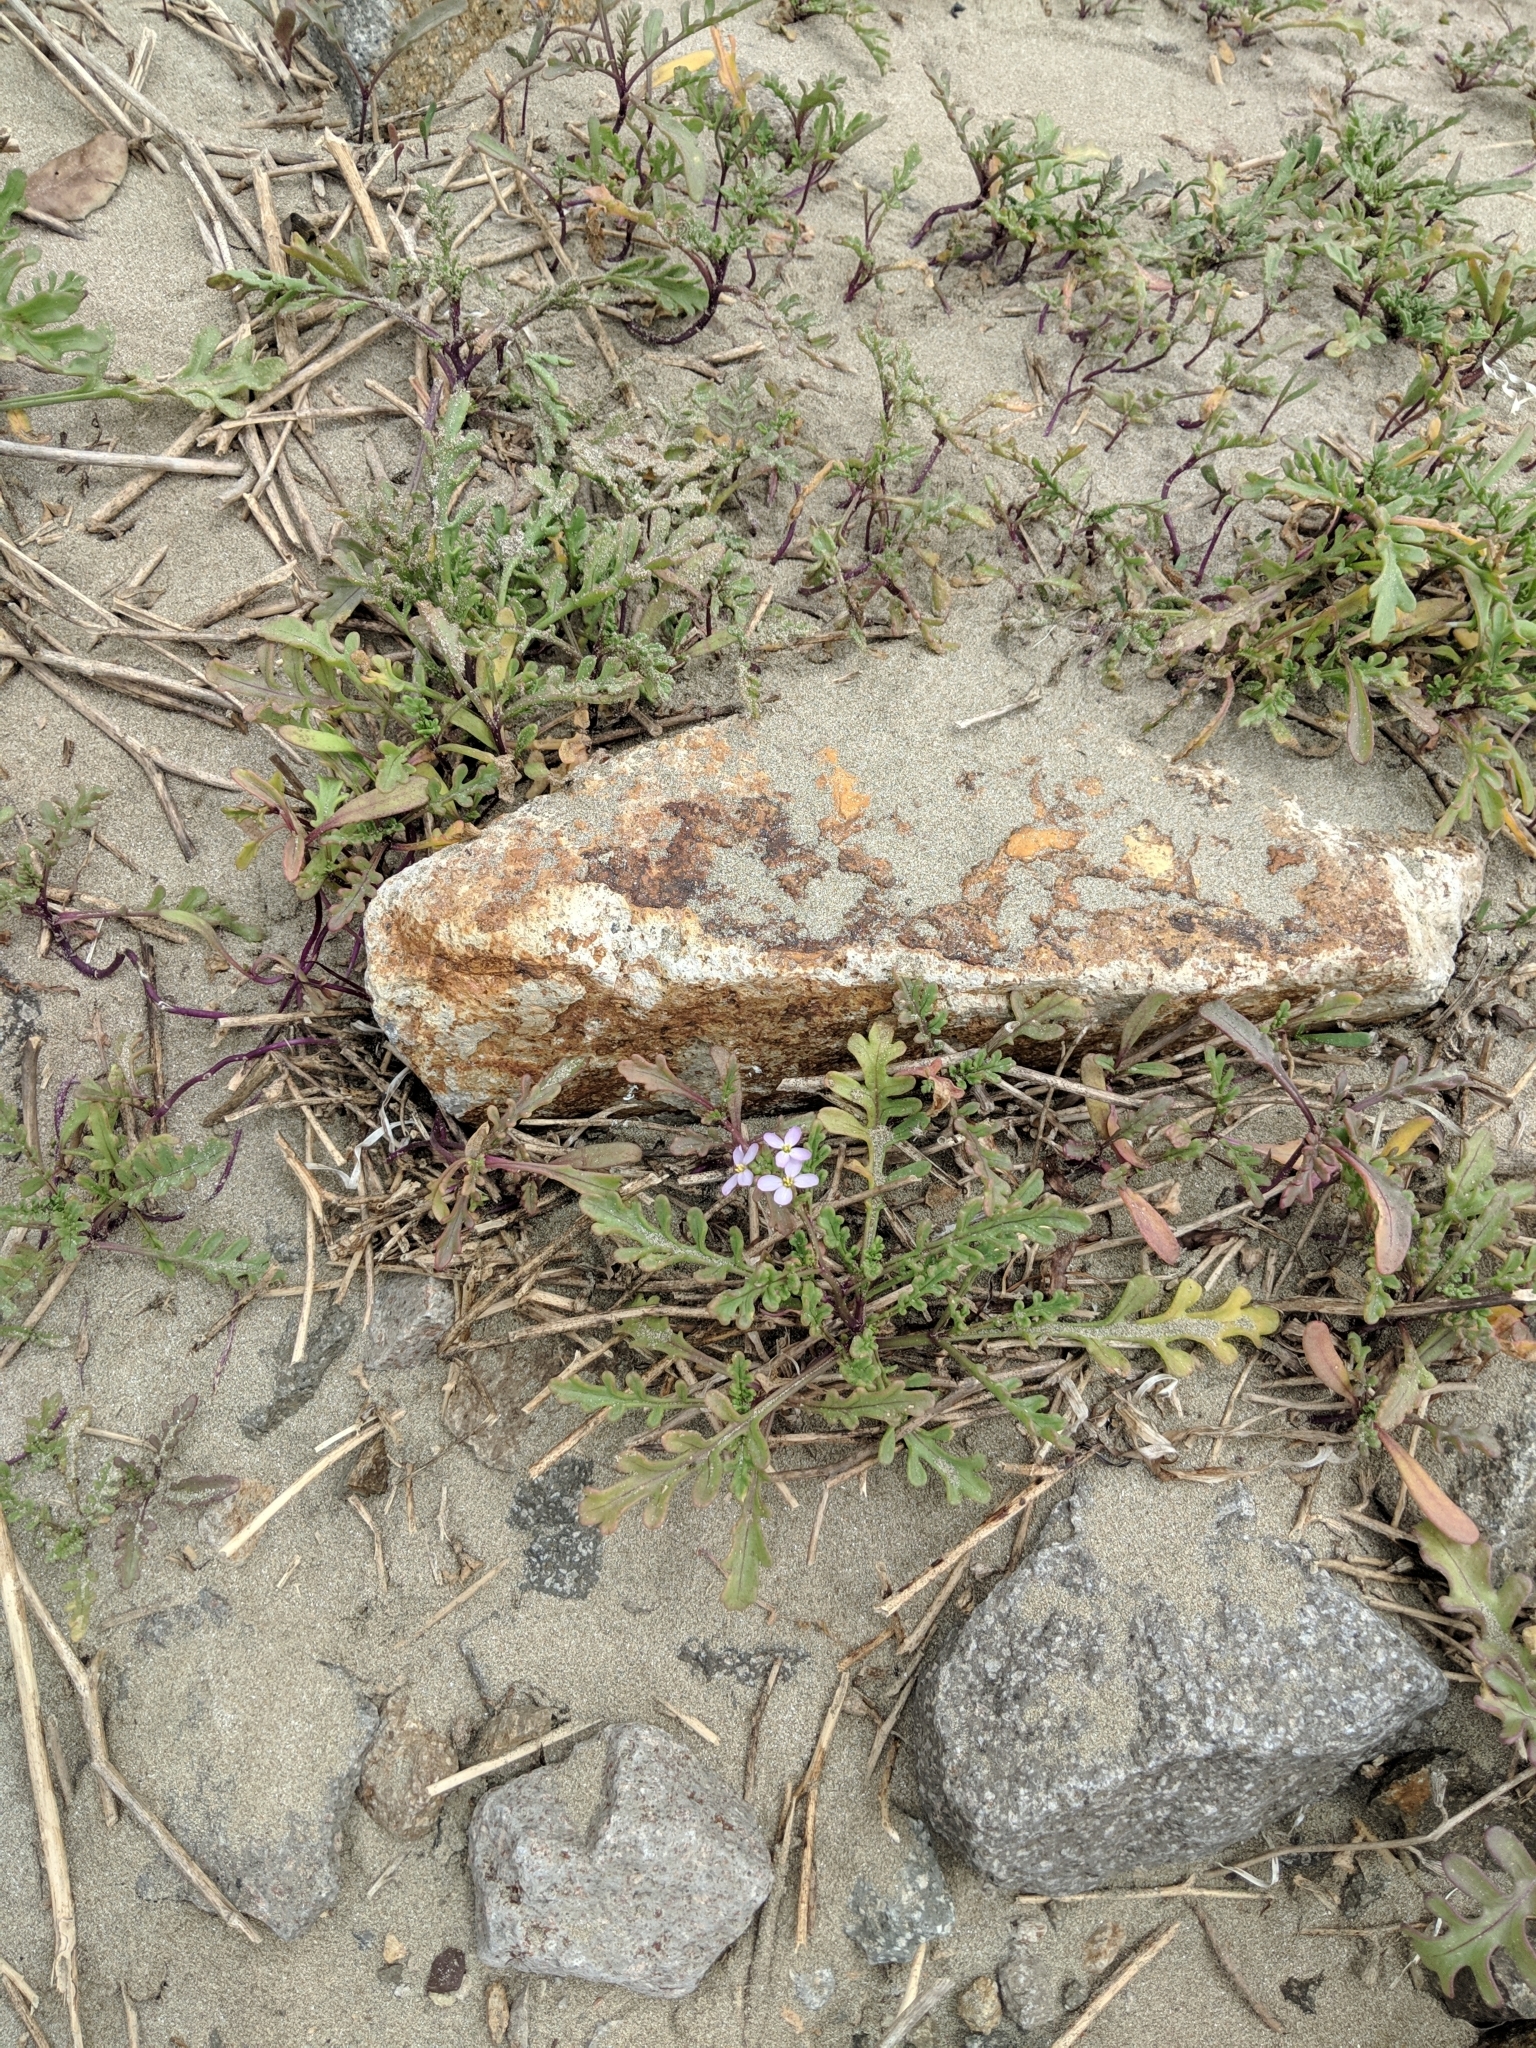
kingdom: Plantae
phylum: Tracheophyta
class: Magnoliopsida
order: Brassicales
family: Brassicaceae
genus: Cakile
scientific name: Cakile maritima
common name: Sea rocket
